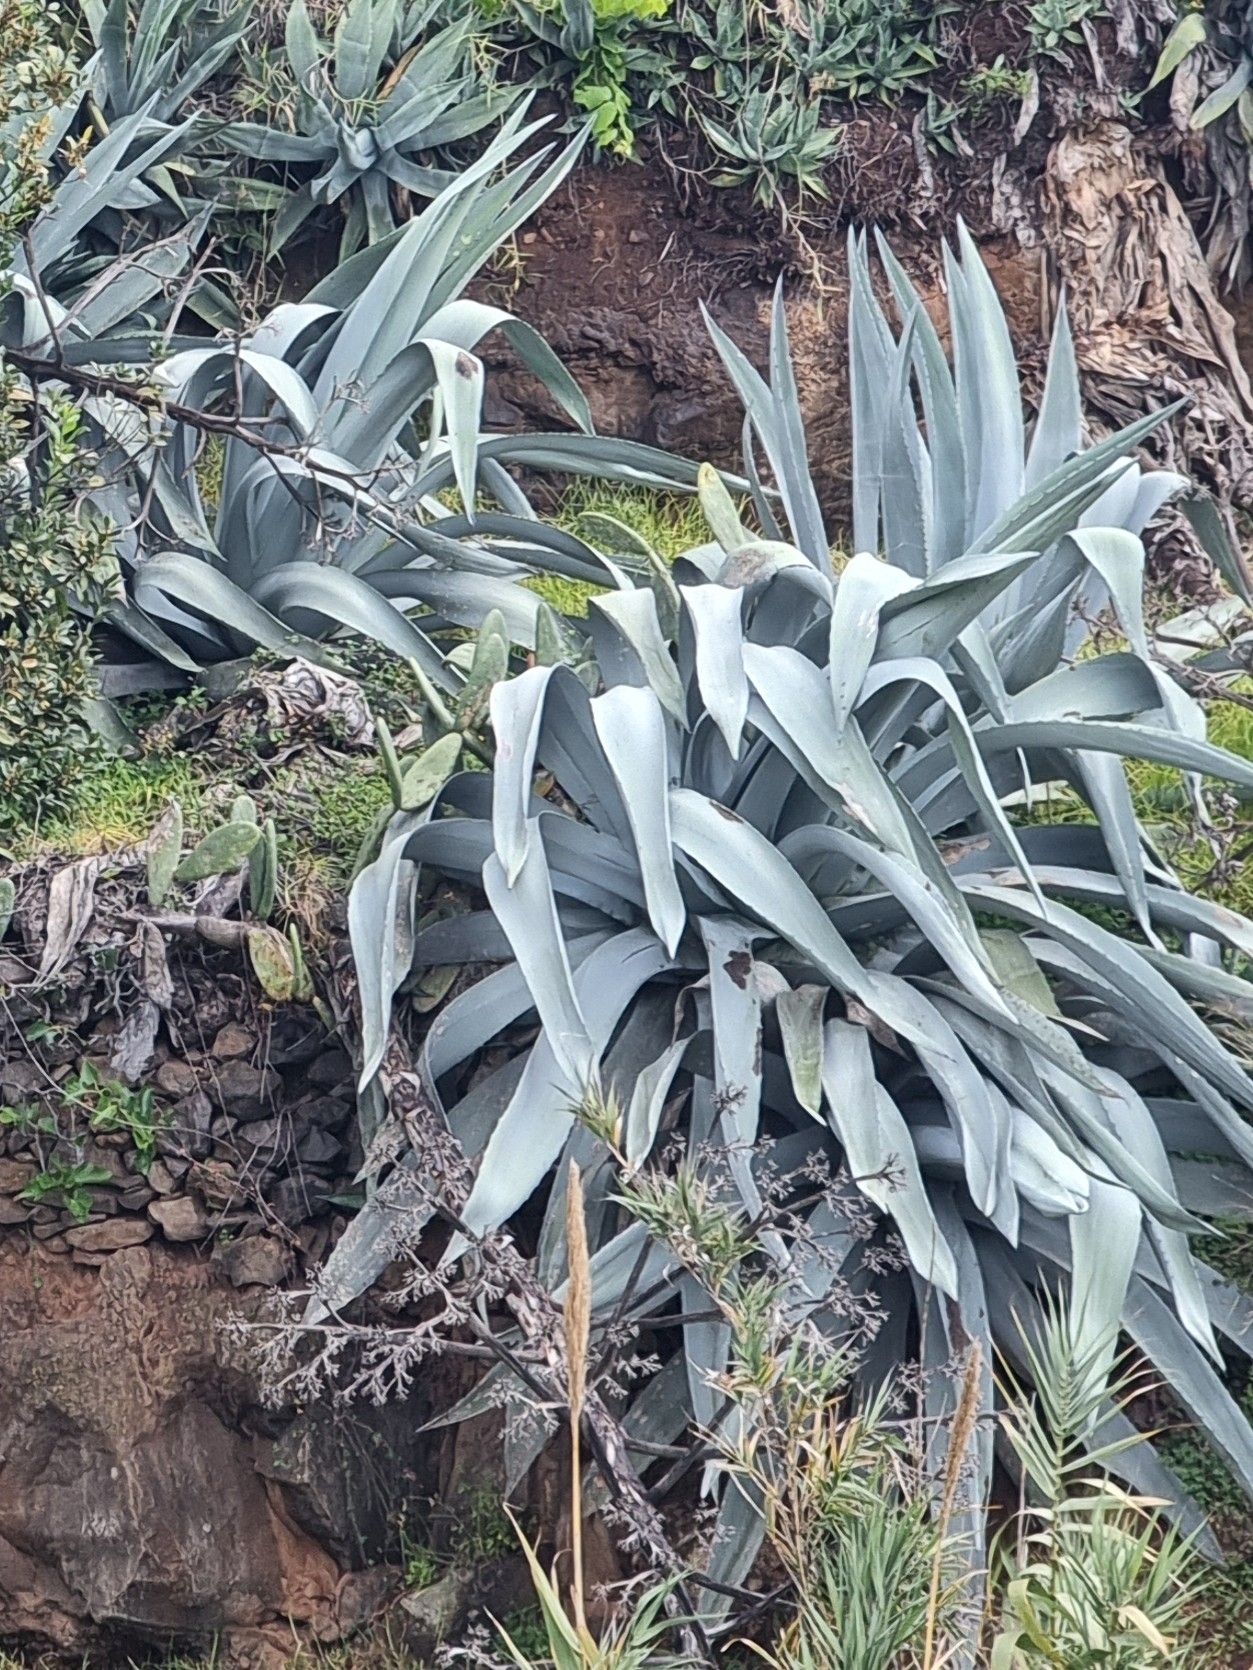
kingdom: Plantae
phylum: Tracheophyta
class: Liliopsida
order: Asparagales
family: Asparagaceae
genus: Agave
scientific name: Agave americana
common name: Centuryplant
